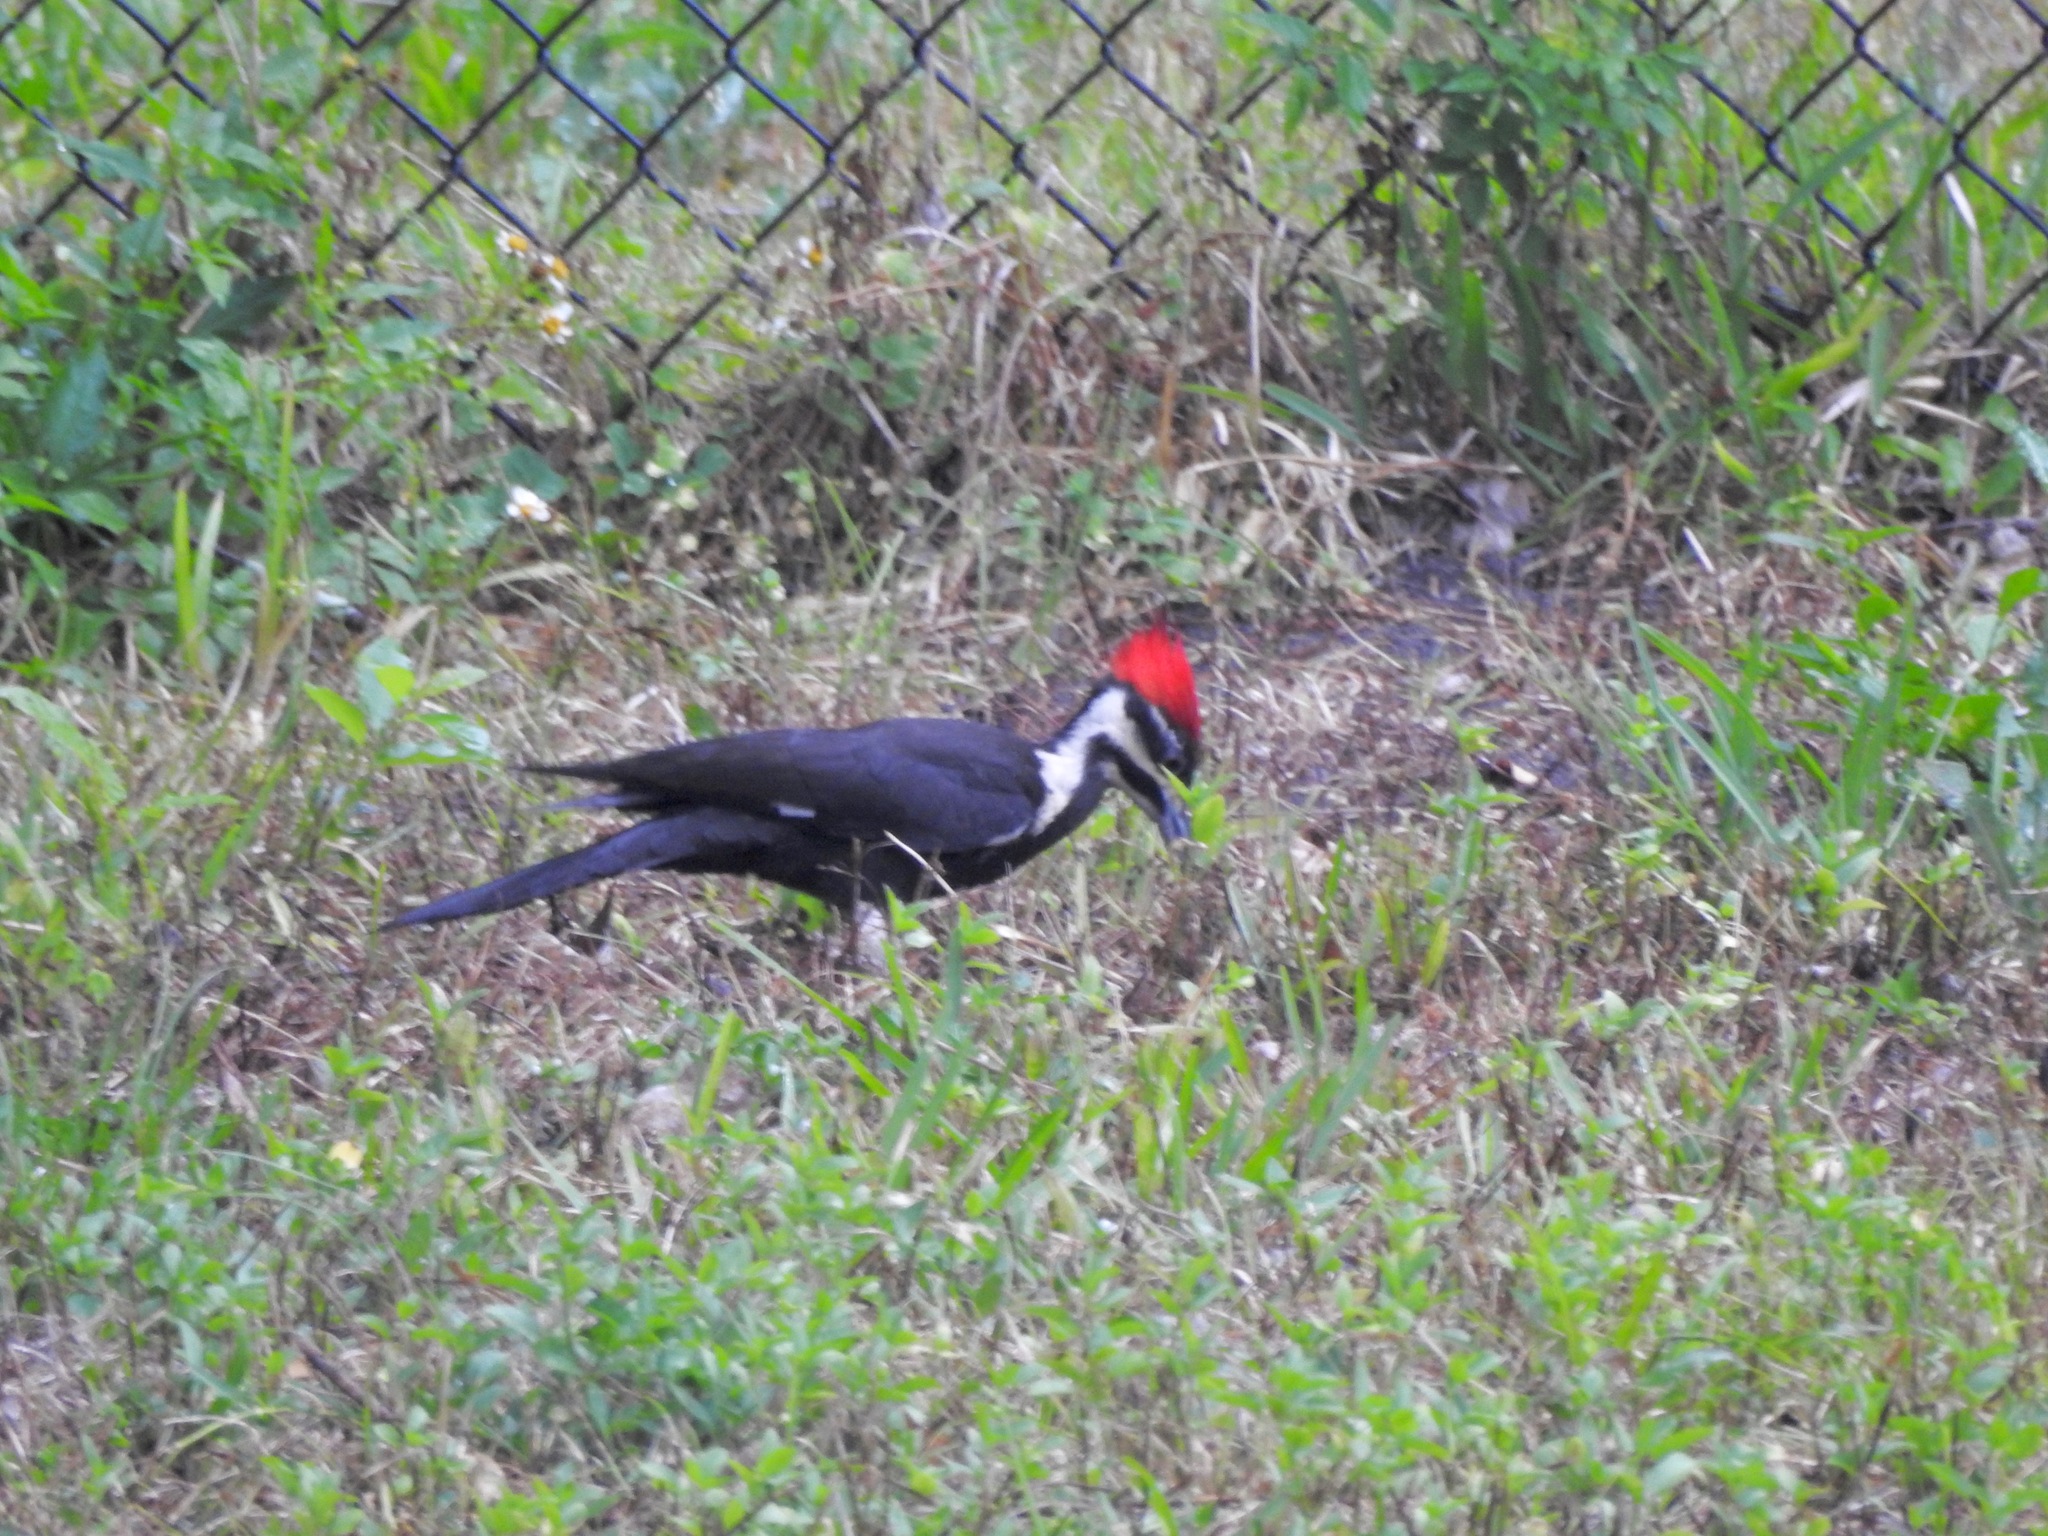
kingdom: Animalia
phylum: Chordata
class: Aves
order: Piciformes
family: Picidae
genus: Dryocopus
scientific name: Dryocopus pileatus
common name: Pileated woodpecker
